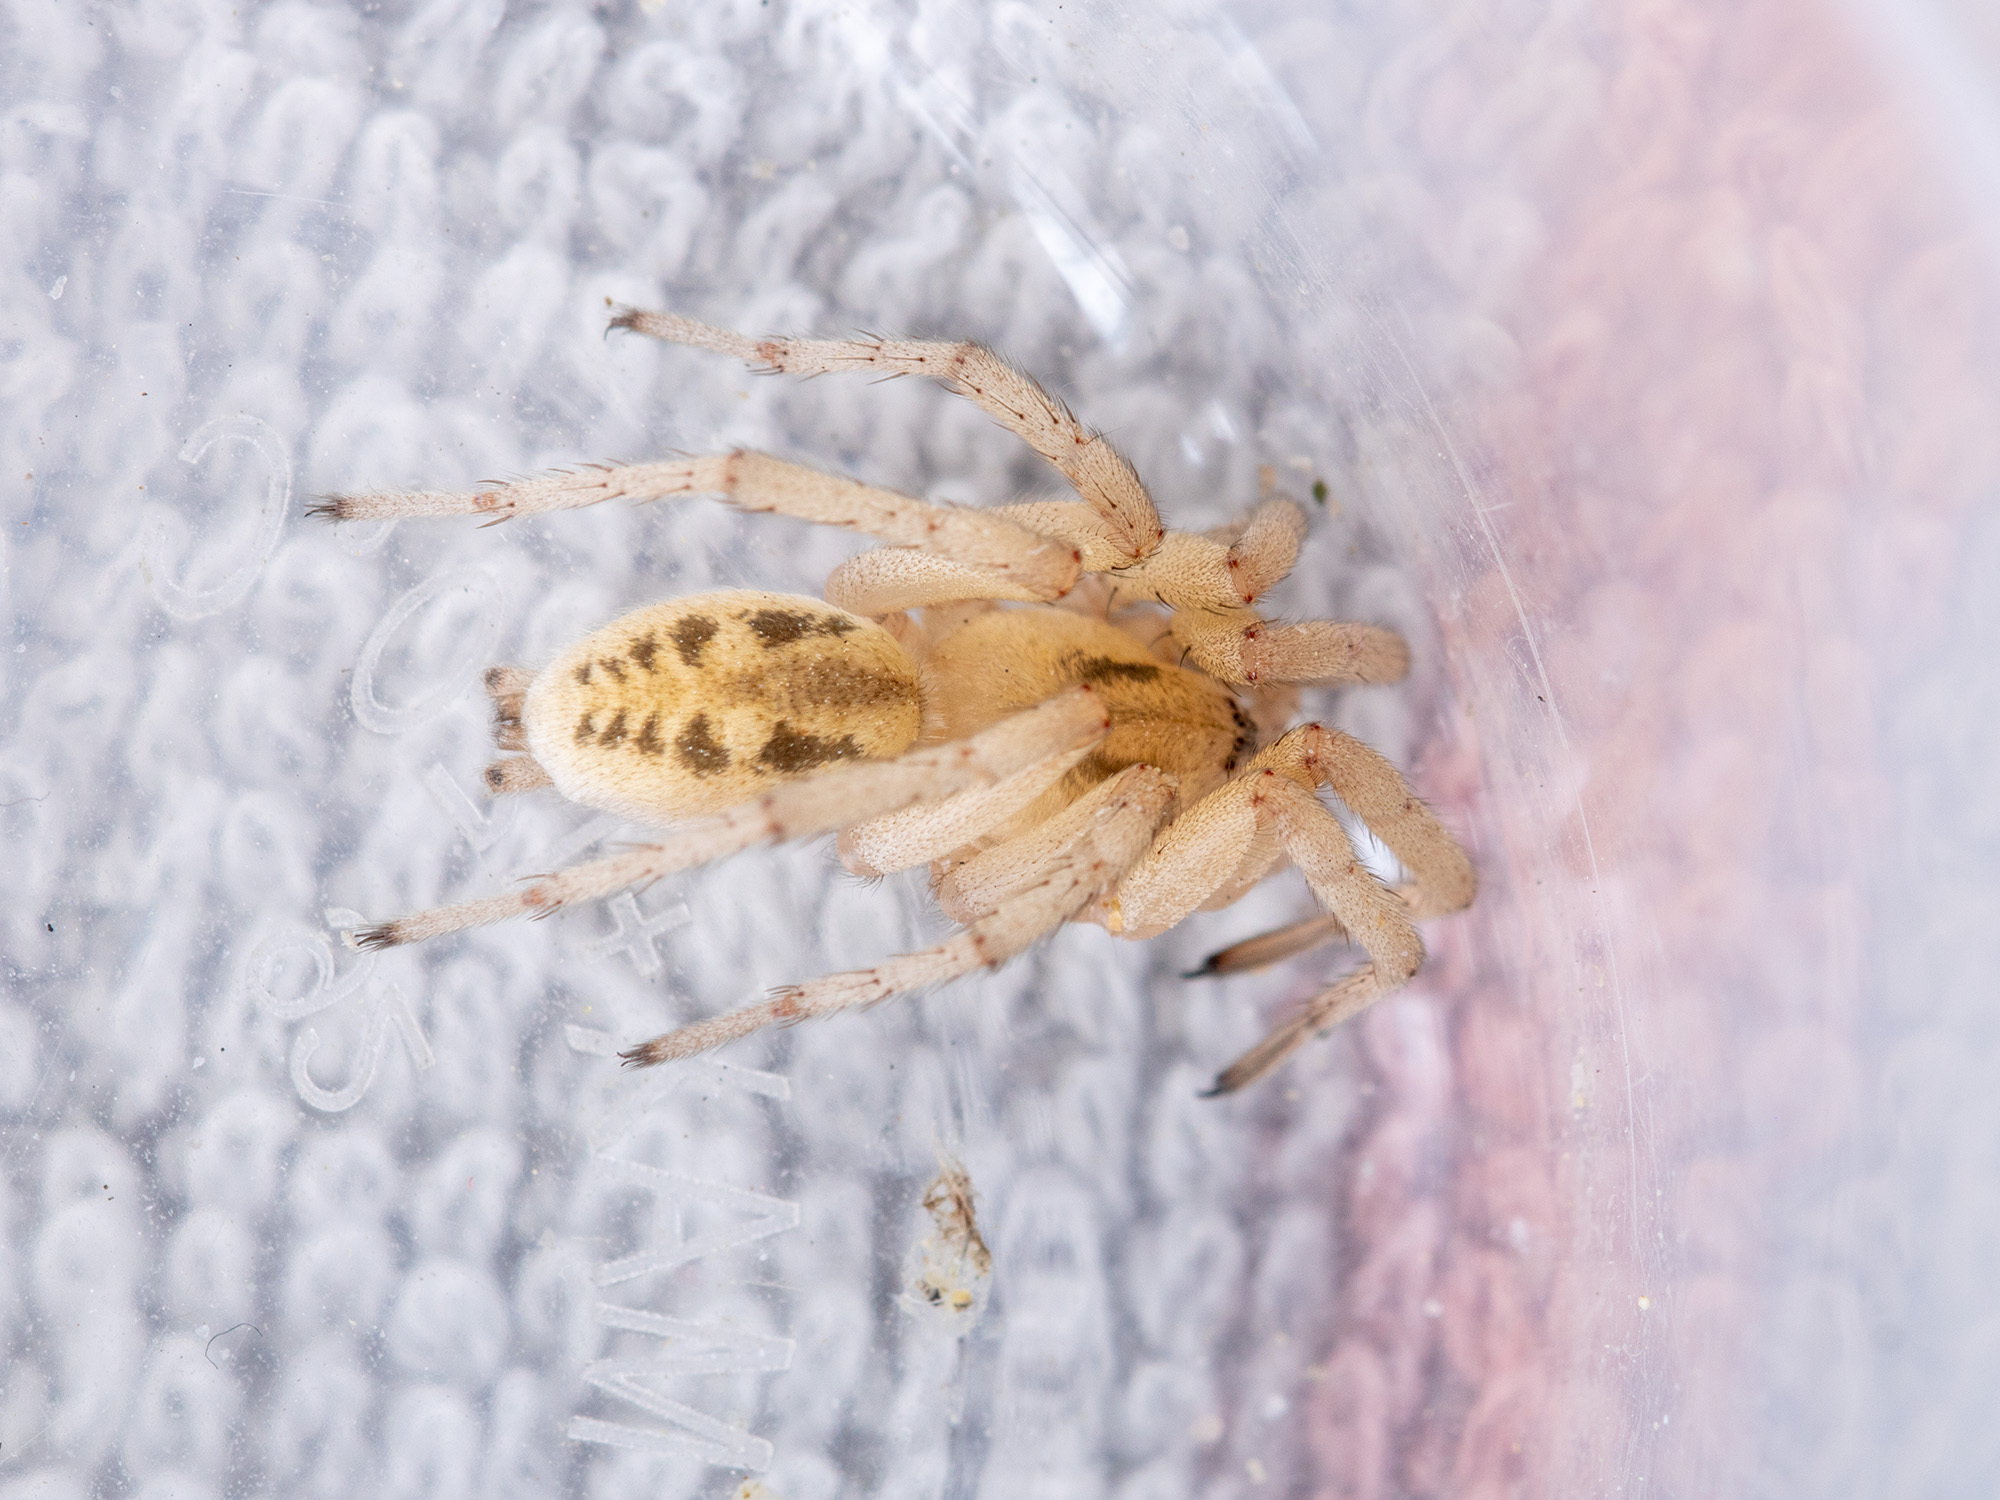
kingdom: Animalia
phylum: Arthropoda
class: Arachnida
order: Araneae
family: Gnaphosidae
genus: Berlandina
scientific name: Berlandina saraevi
